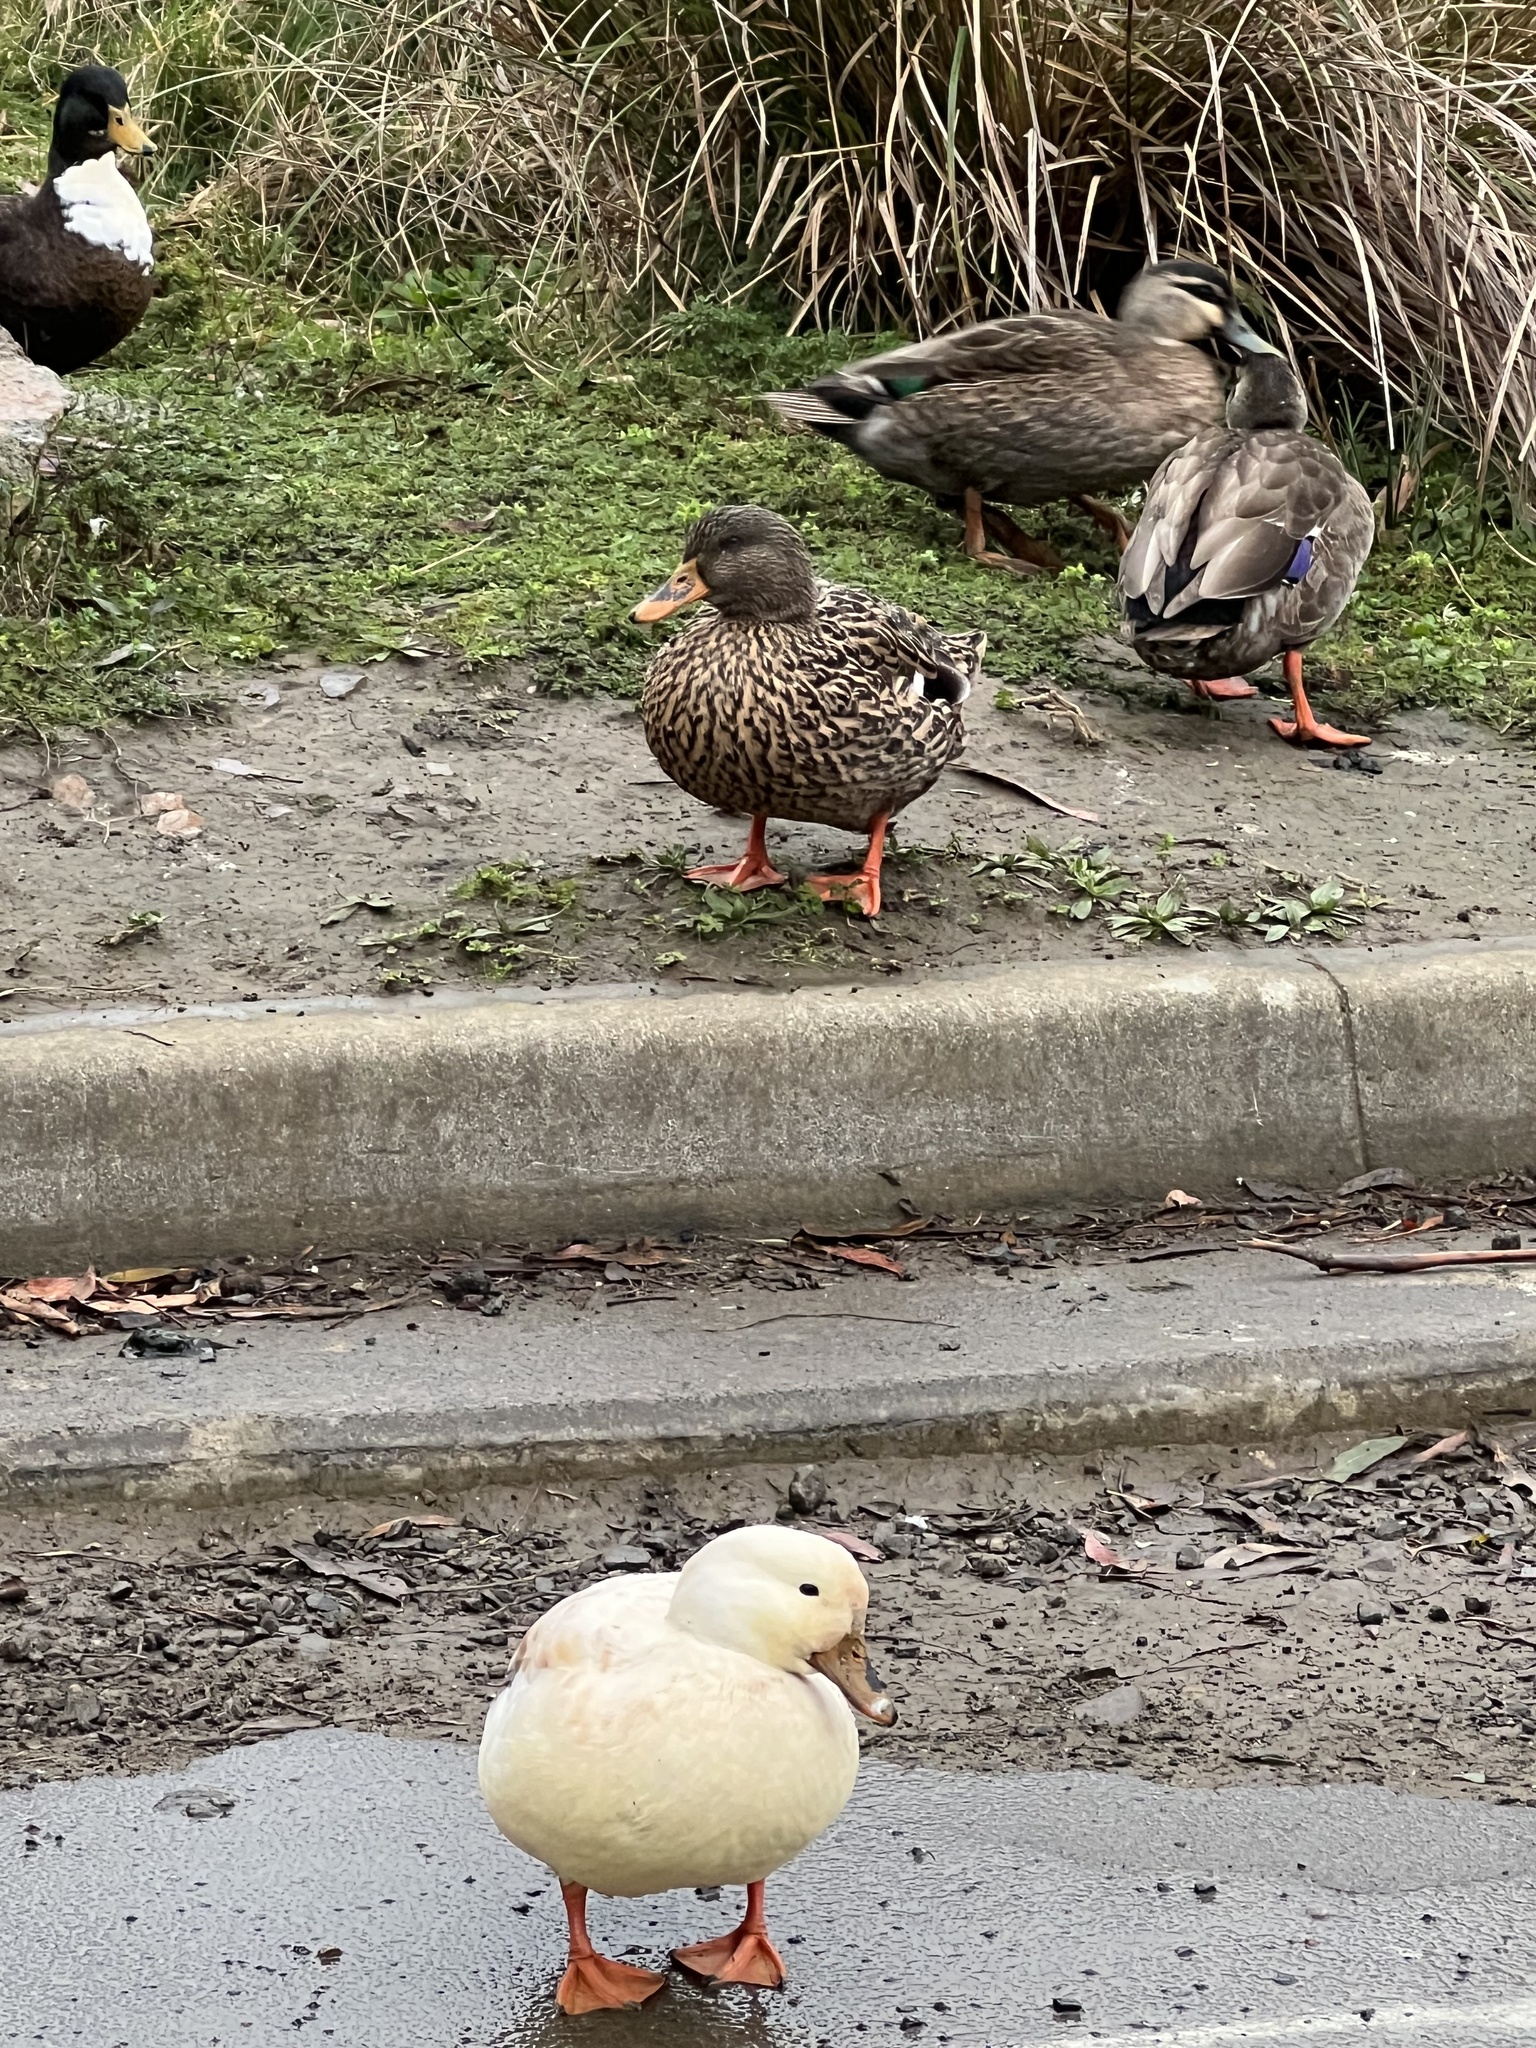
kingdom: Animalia
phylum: Chordata
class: Aves
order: Anseriformes
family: Anatidae
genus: Anas
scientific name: Anas platyrhynchos
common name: Mallard
